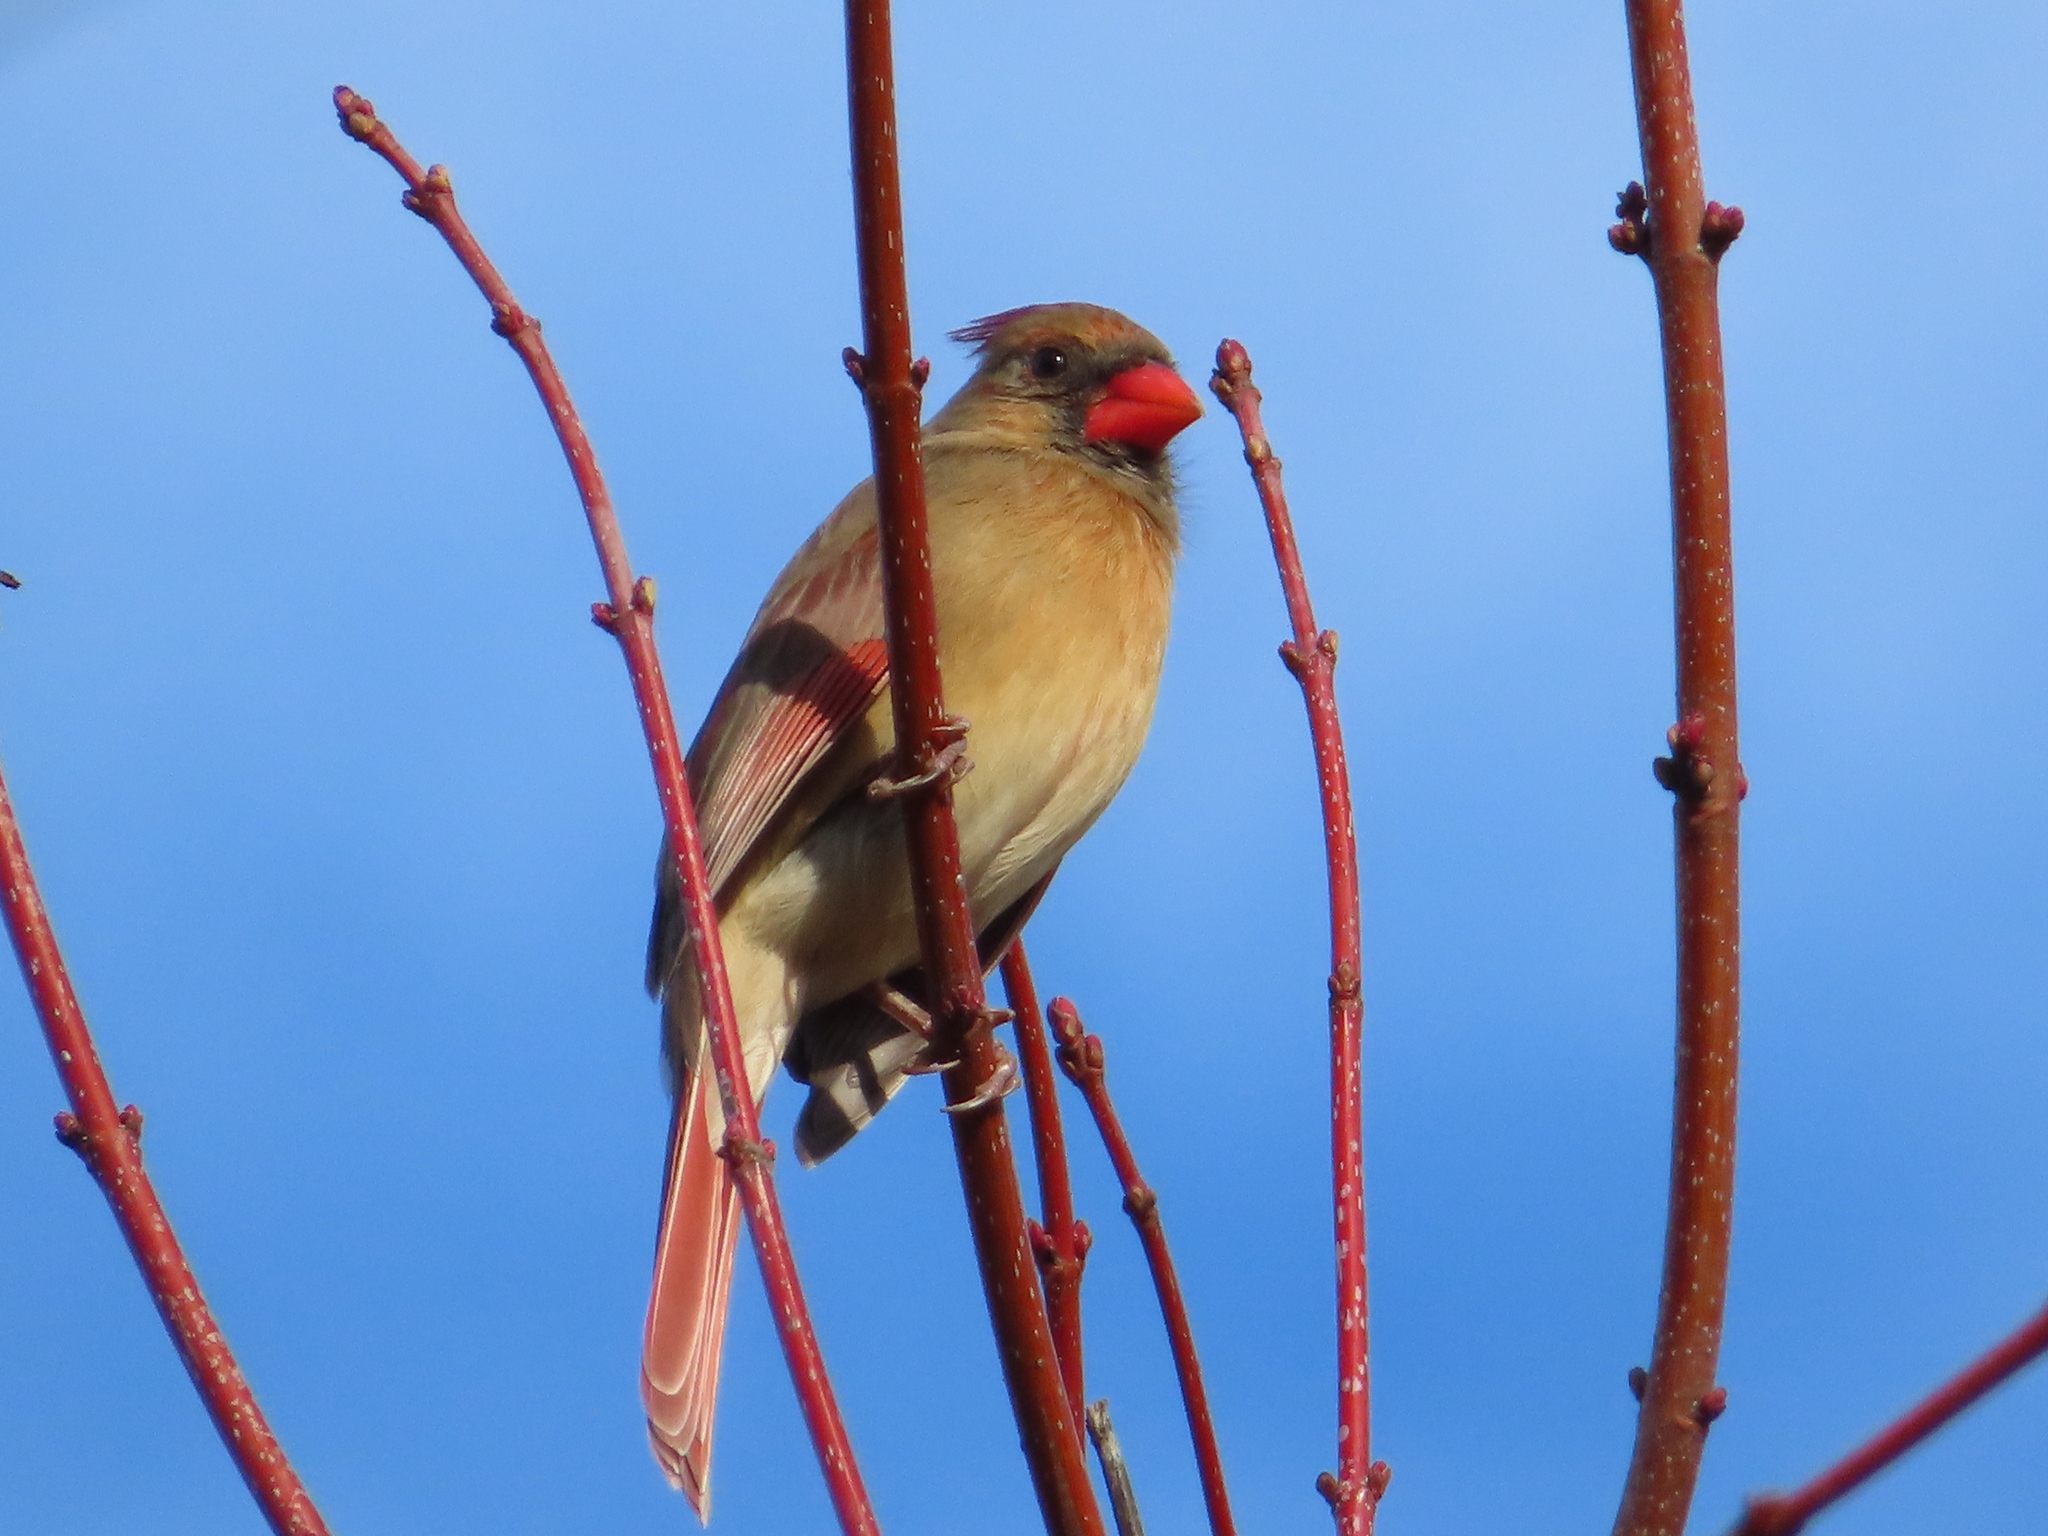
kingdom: Animalia
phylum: Chordata
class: Aves
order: Passeriformes
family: Cardinalidae
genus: Cardinalis
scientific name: Cardinalis cardinalis
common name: Northern cardinal
